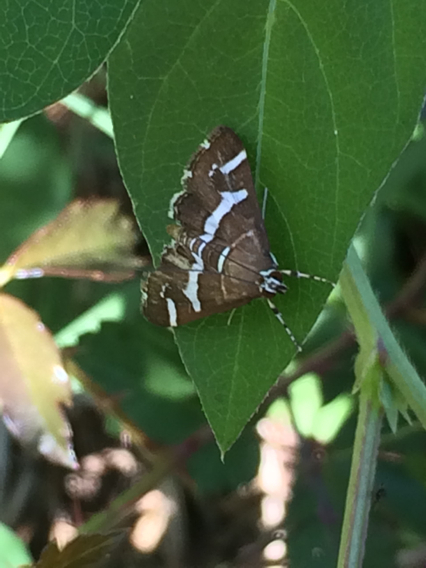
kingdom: Animalia
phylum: Arthropoda
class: Insecta
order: Lepidoptera
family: Crambidae
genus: Spoladea
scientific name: Spoladea recurvalis
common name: Beet webworm moth
